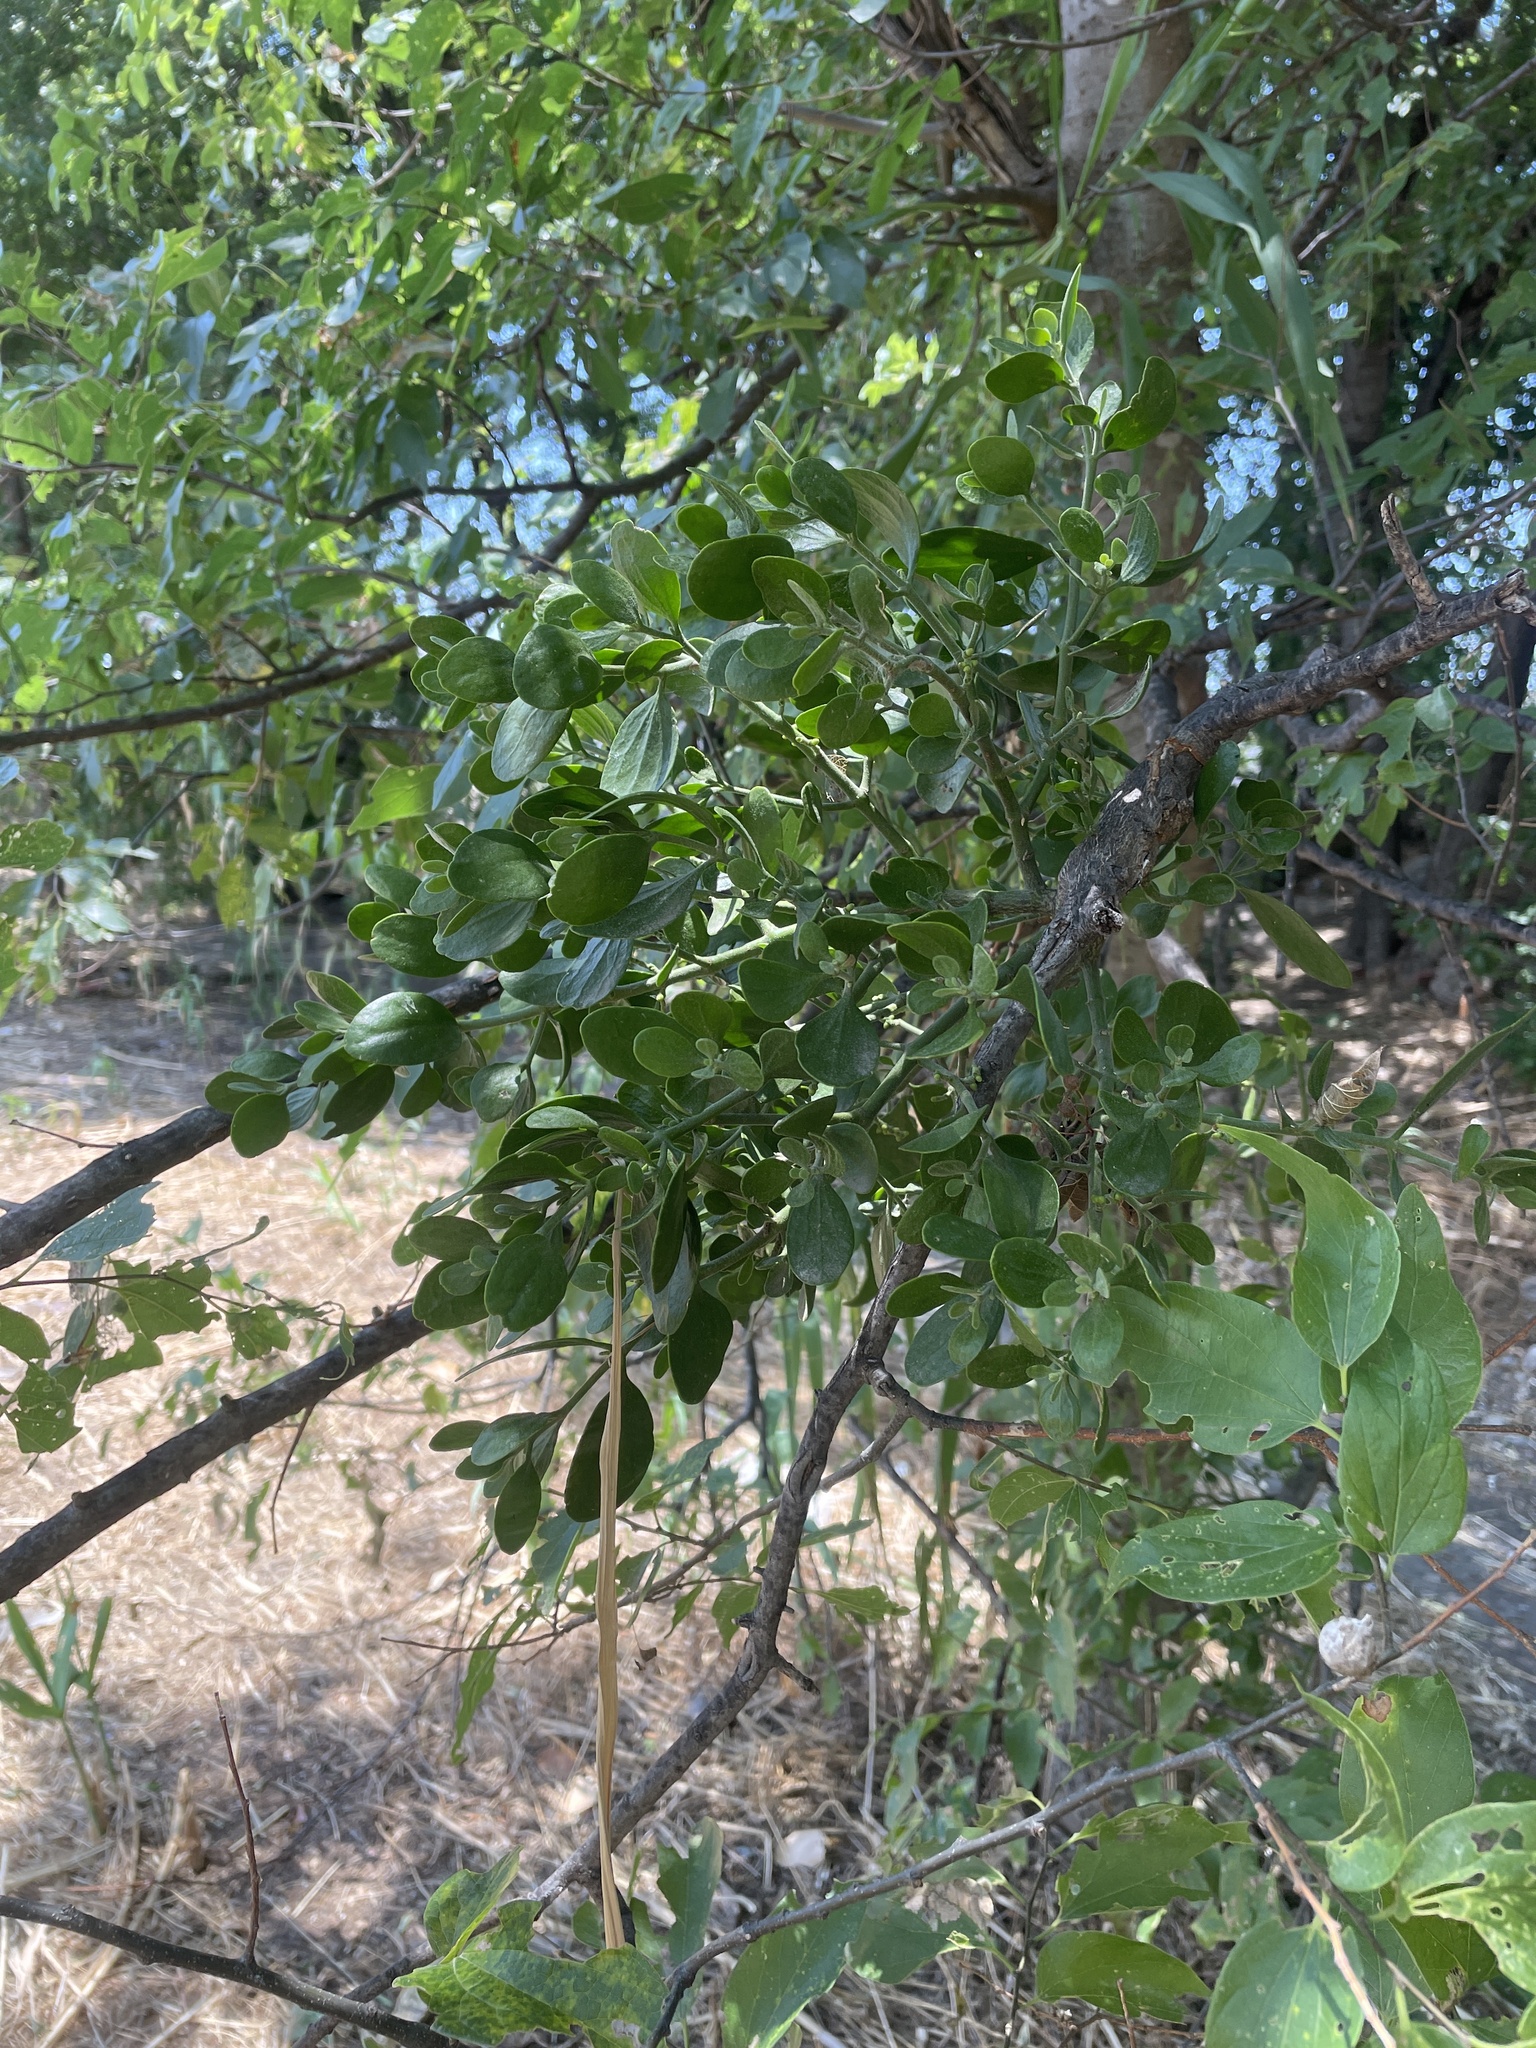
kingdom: Plantae
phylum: Tracheophyta
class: Magnoliopsida
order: Santalales
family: Viscaceae
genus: Phoradendron
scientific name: Phoradendron leucarpum
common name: Pacific mistletoe
